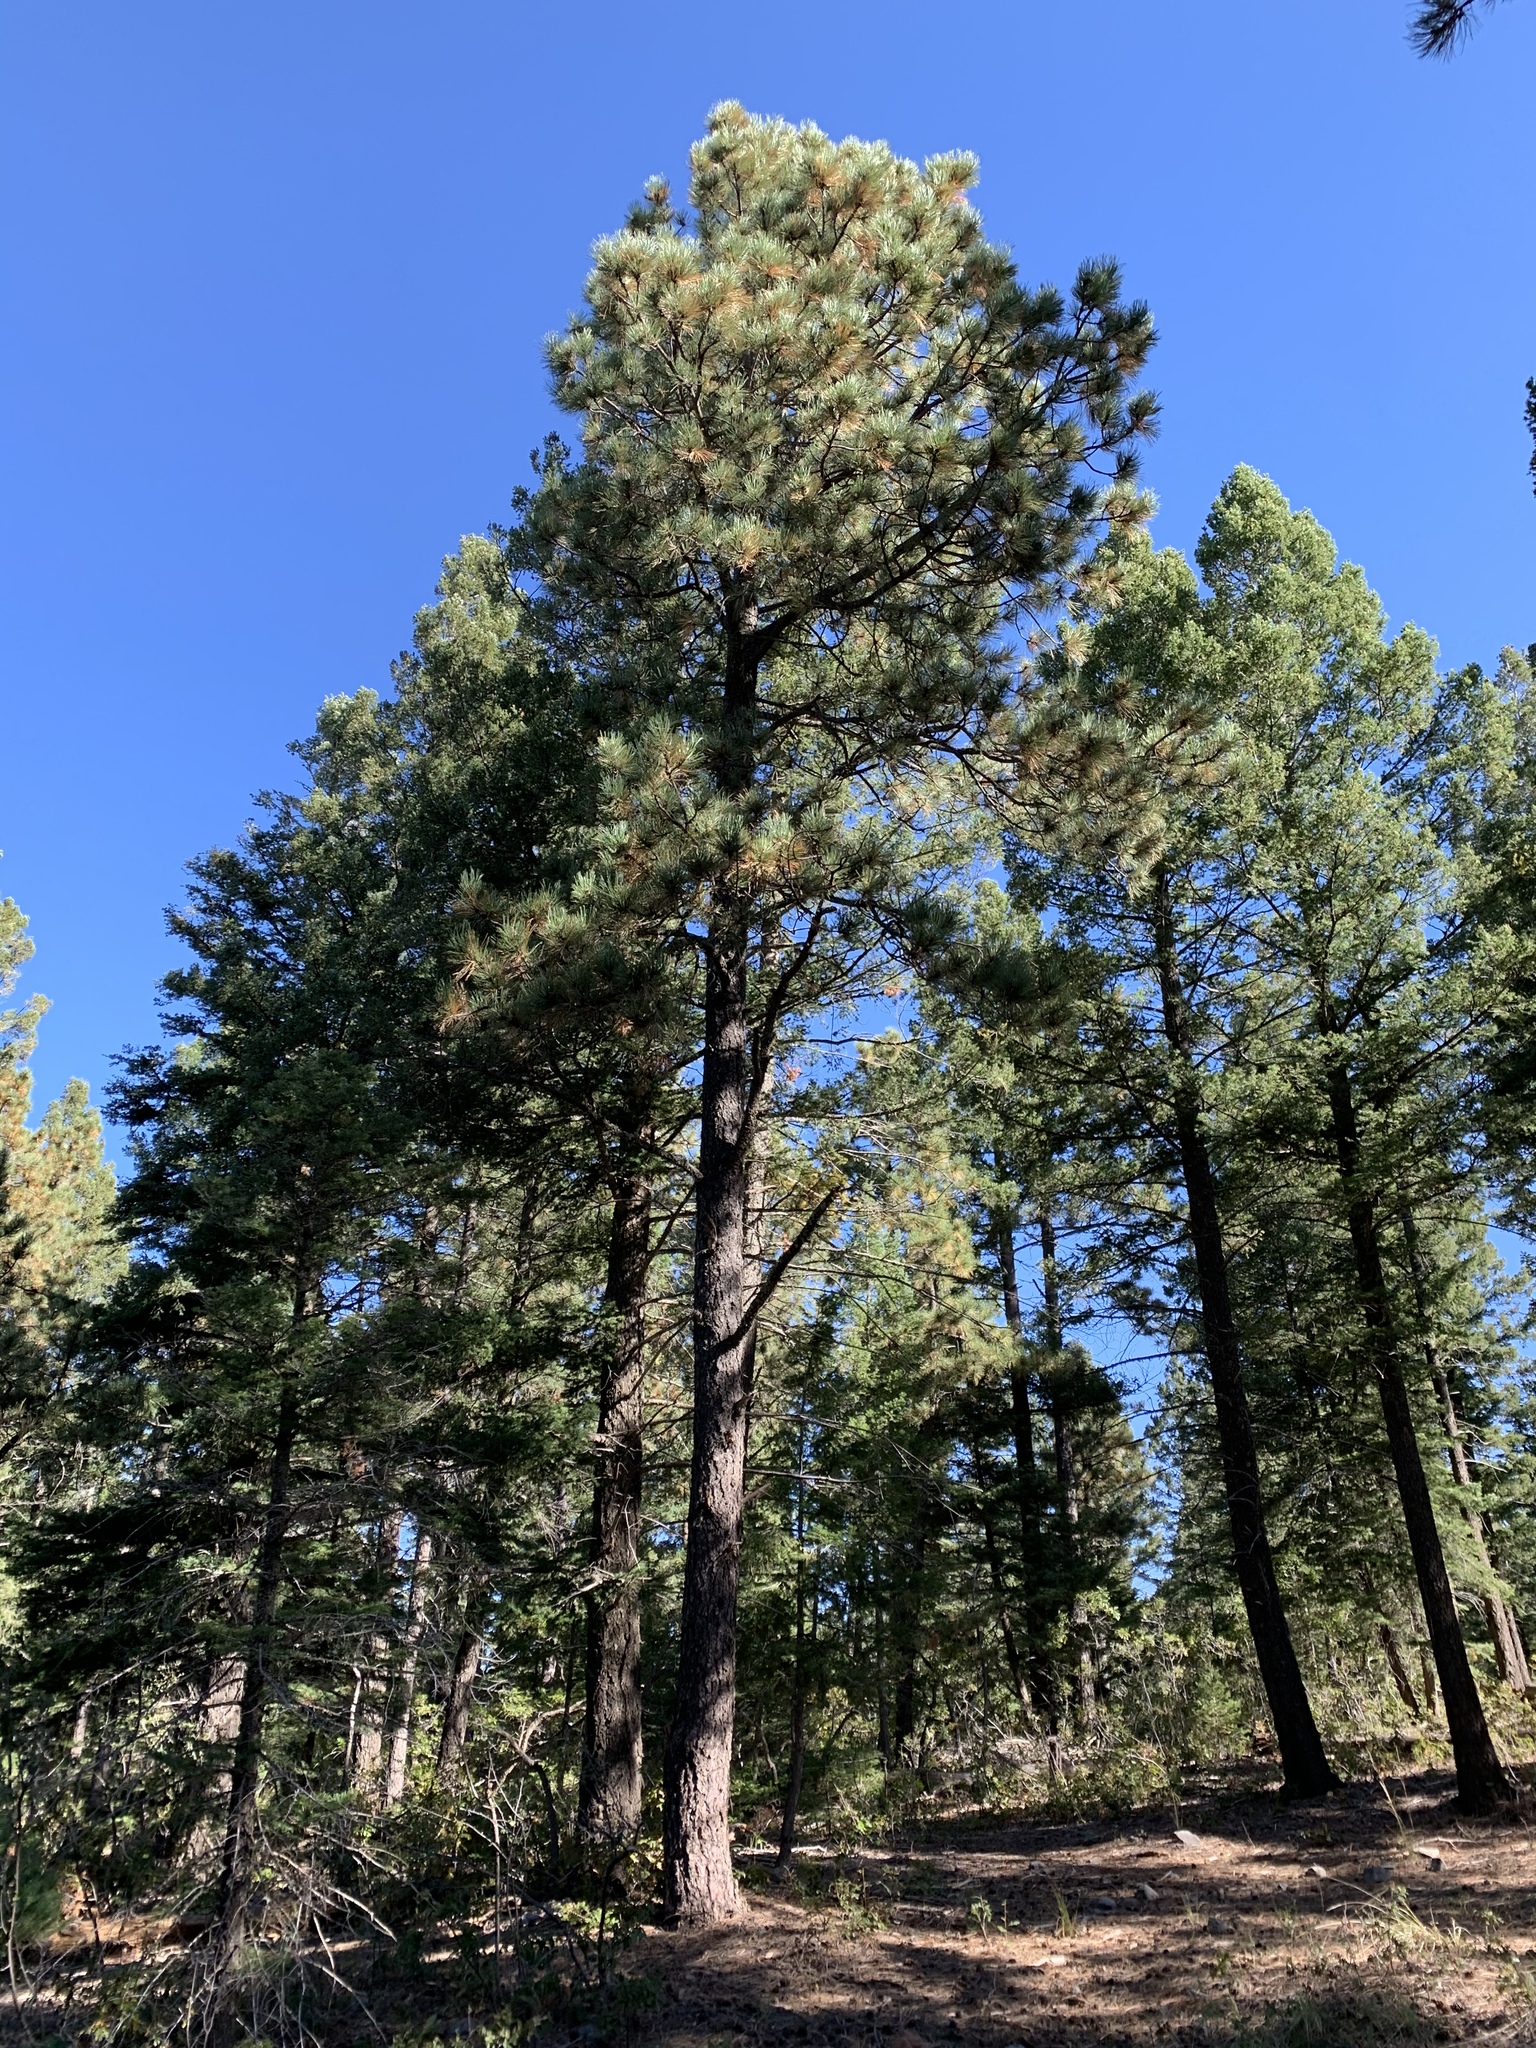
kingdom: Plantae
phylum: Tracheophyta
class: Pinopsida
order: Pinales
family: Pinaceae
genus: Pinus
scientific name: Pinus ponderosa
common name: Western yellow-pine
